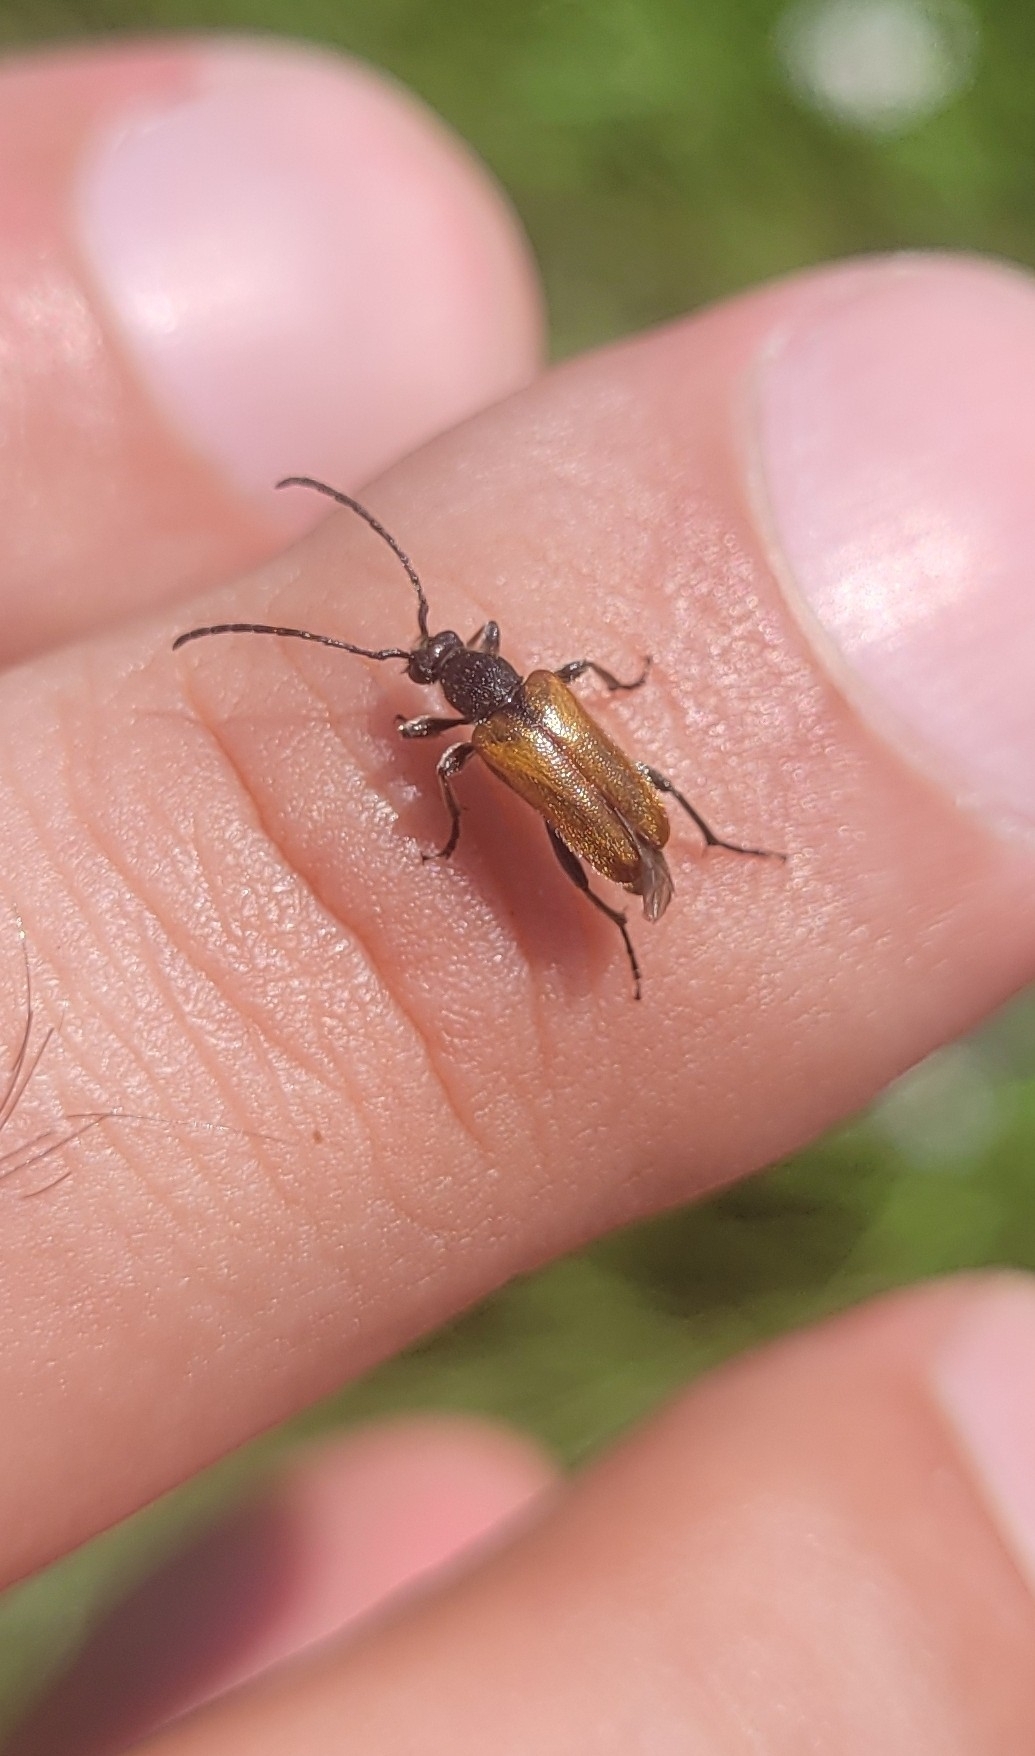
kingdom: Animalia
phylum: Arthropoda
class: Insecta
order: Coleoptera
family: Cerambycidae
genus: Pseudovadonia
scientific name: Pseudovadonia livida
